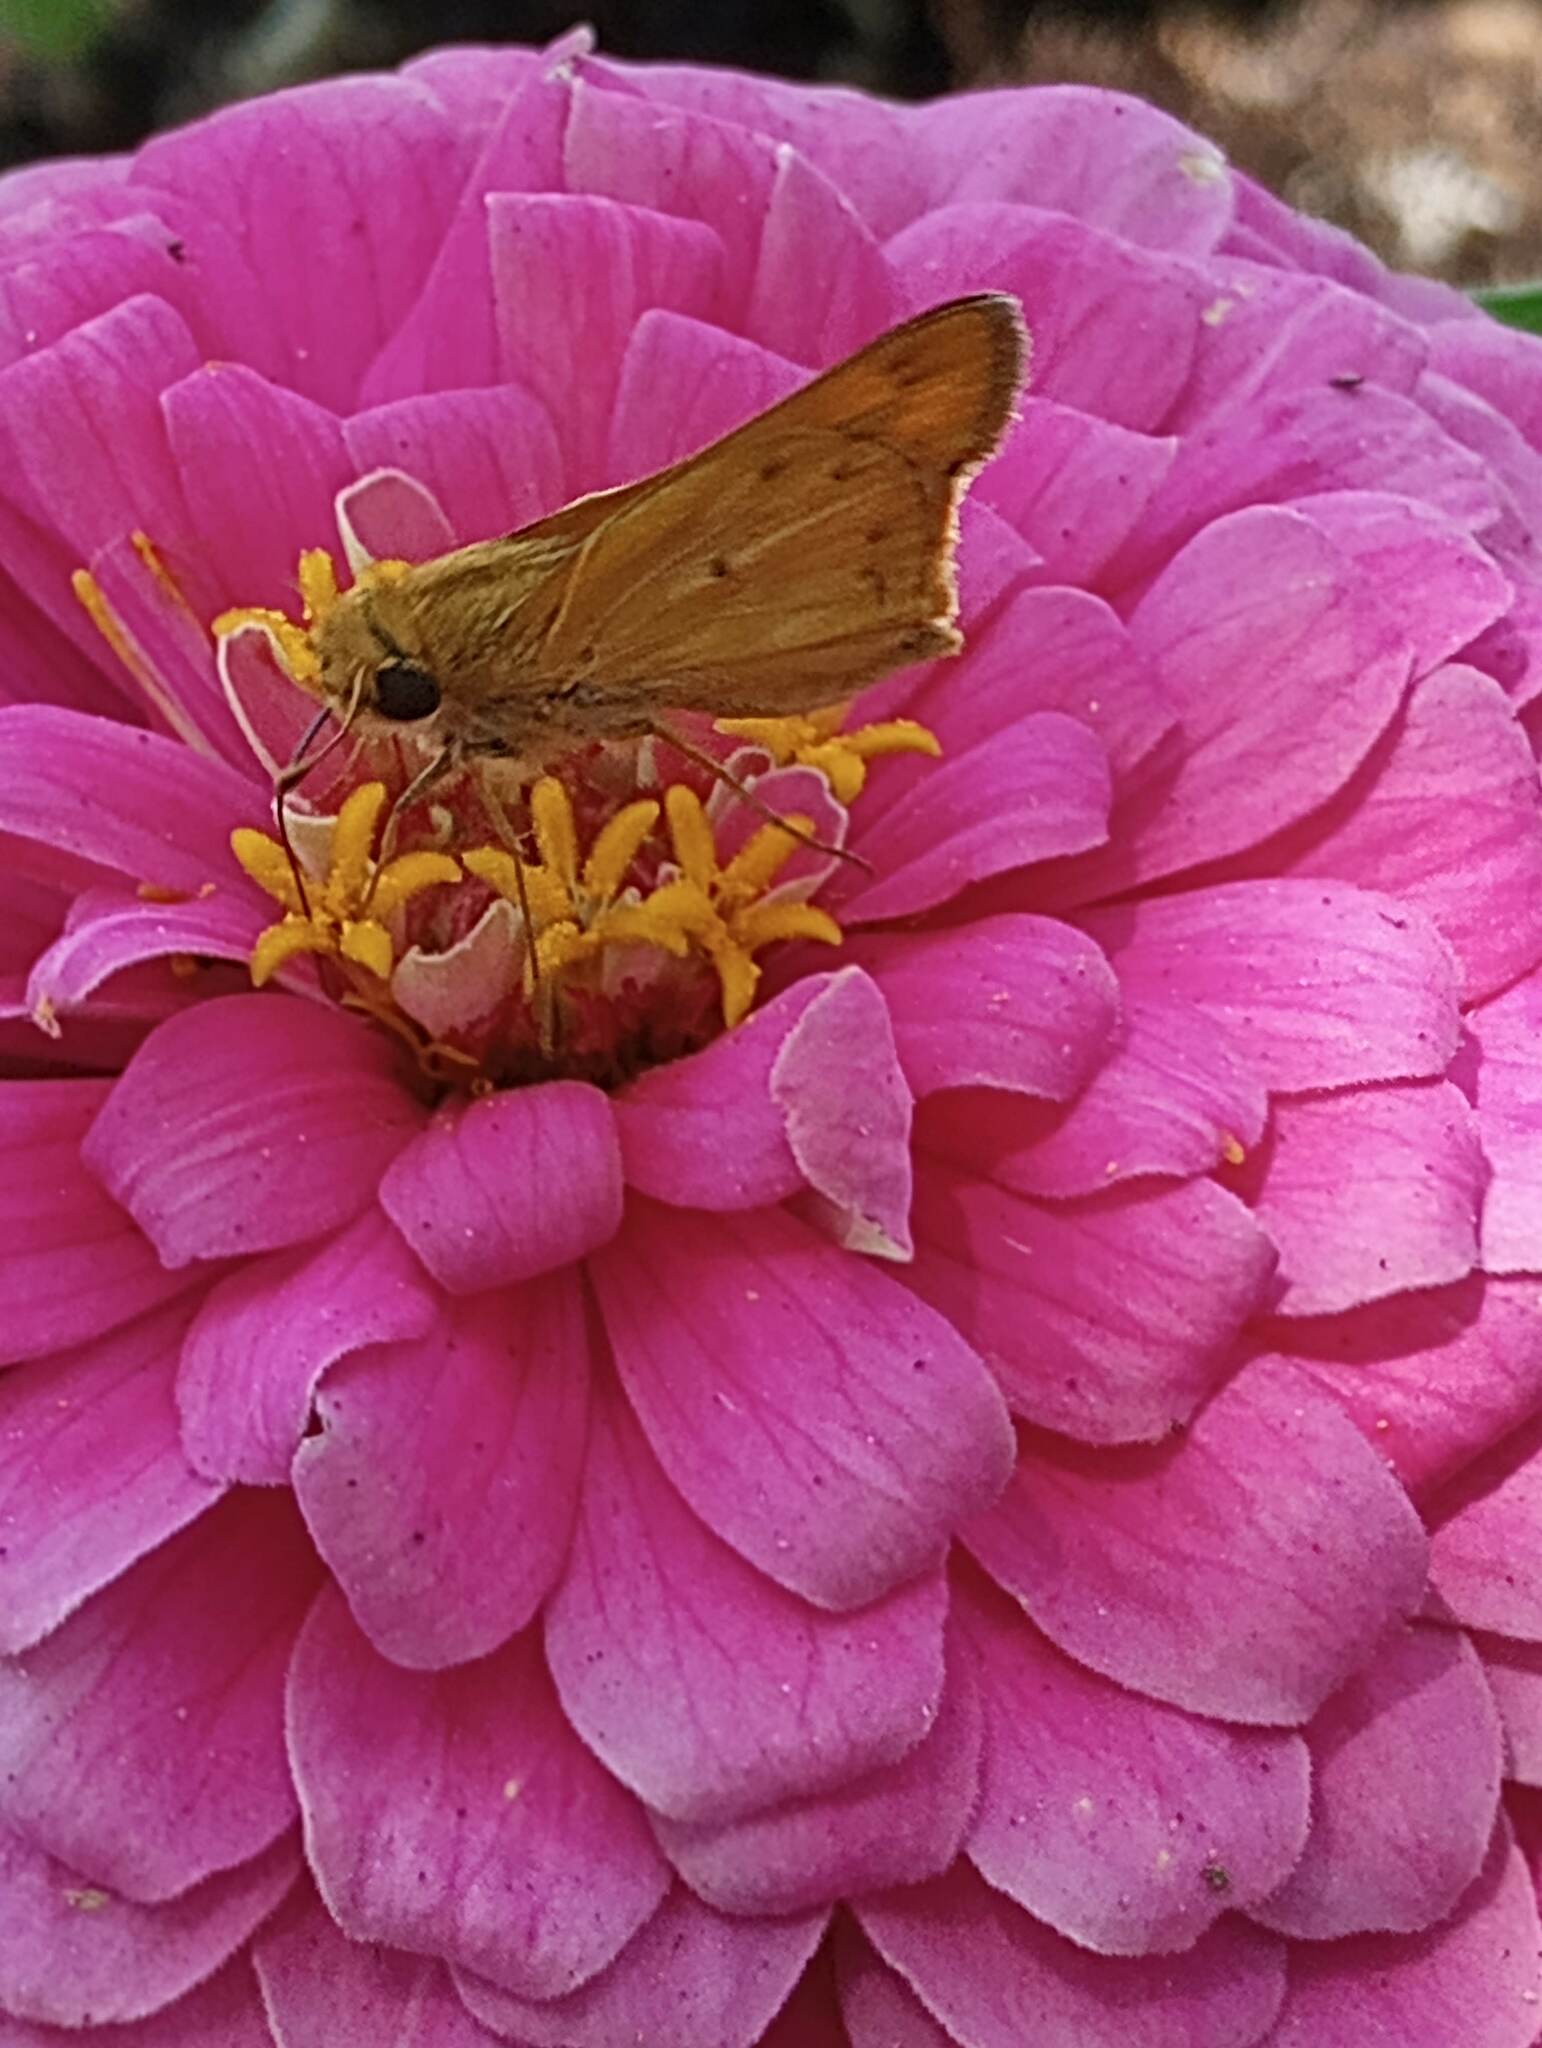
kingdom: Animalia
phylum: Arthropoda
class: Insecta
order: Lepidoptera
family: Hesperiidae
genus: Hylephila
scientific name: Hylephila phyleus
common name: Fiery skipper
